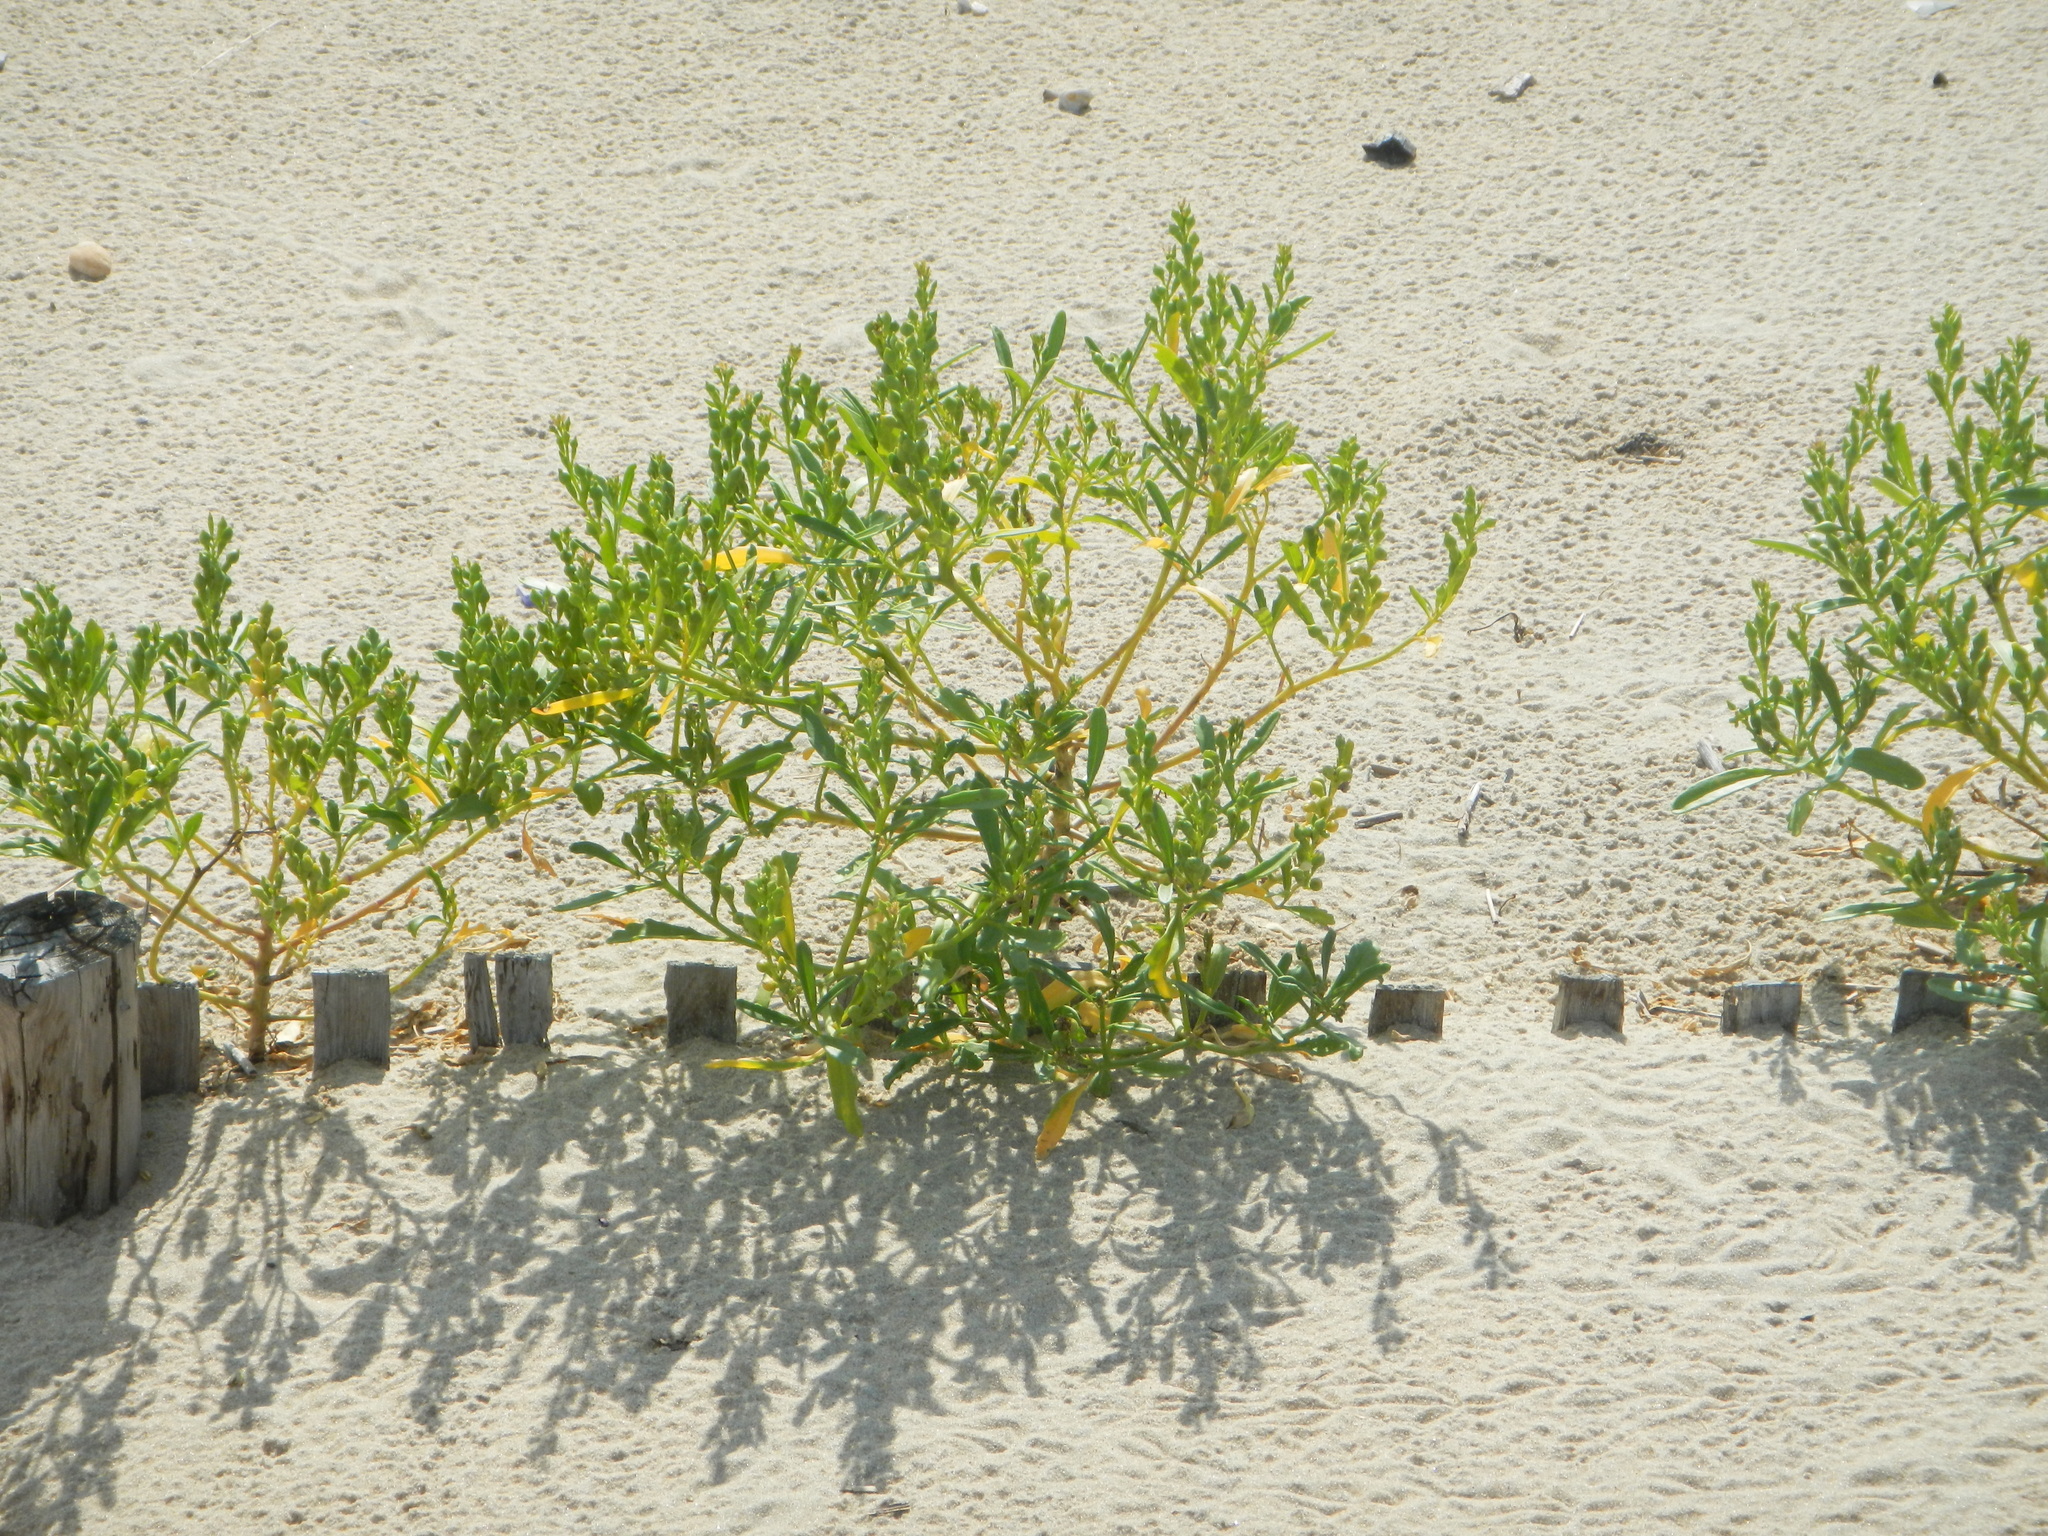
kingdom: Plantae
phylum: Tracheophyta
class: Magnoliopsida
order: Brassicales
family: Brassicaceae
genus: Cakile
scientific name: Cakile edentula
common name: American sea rocket
